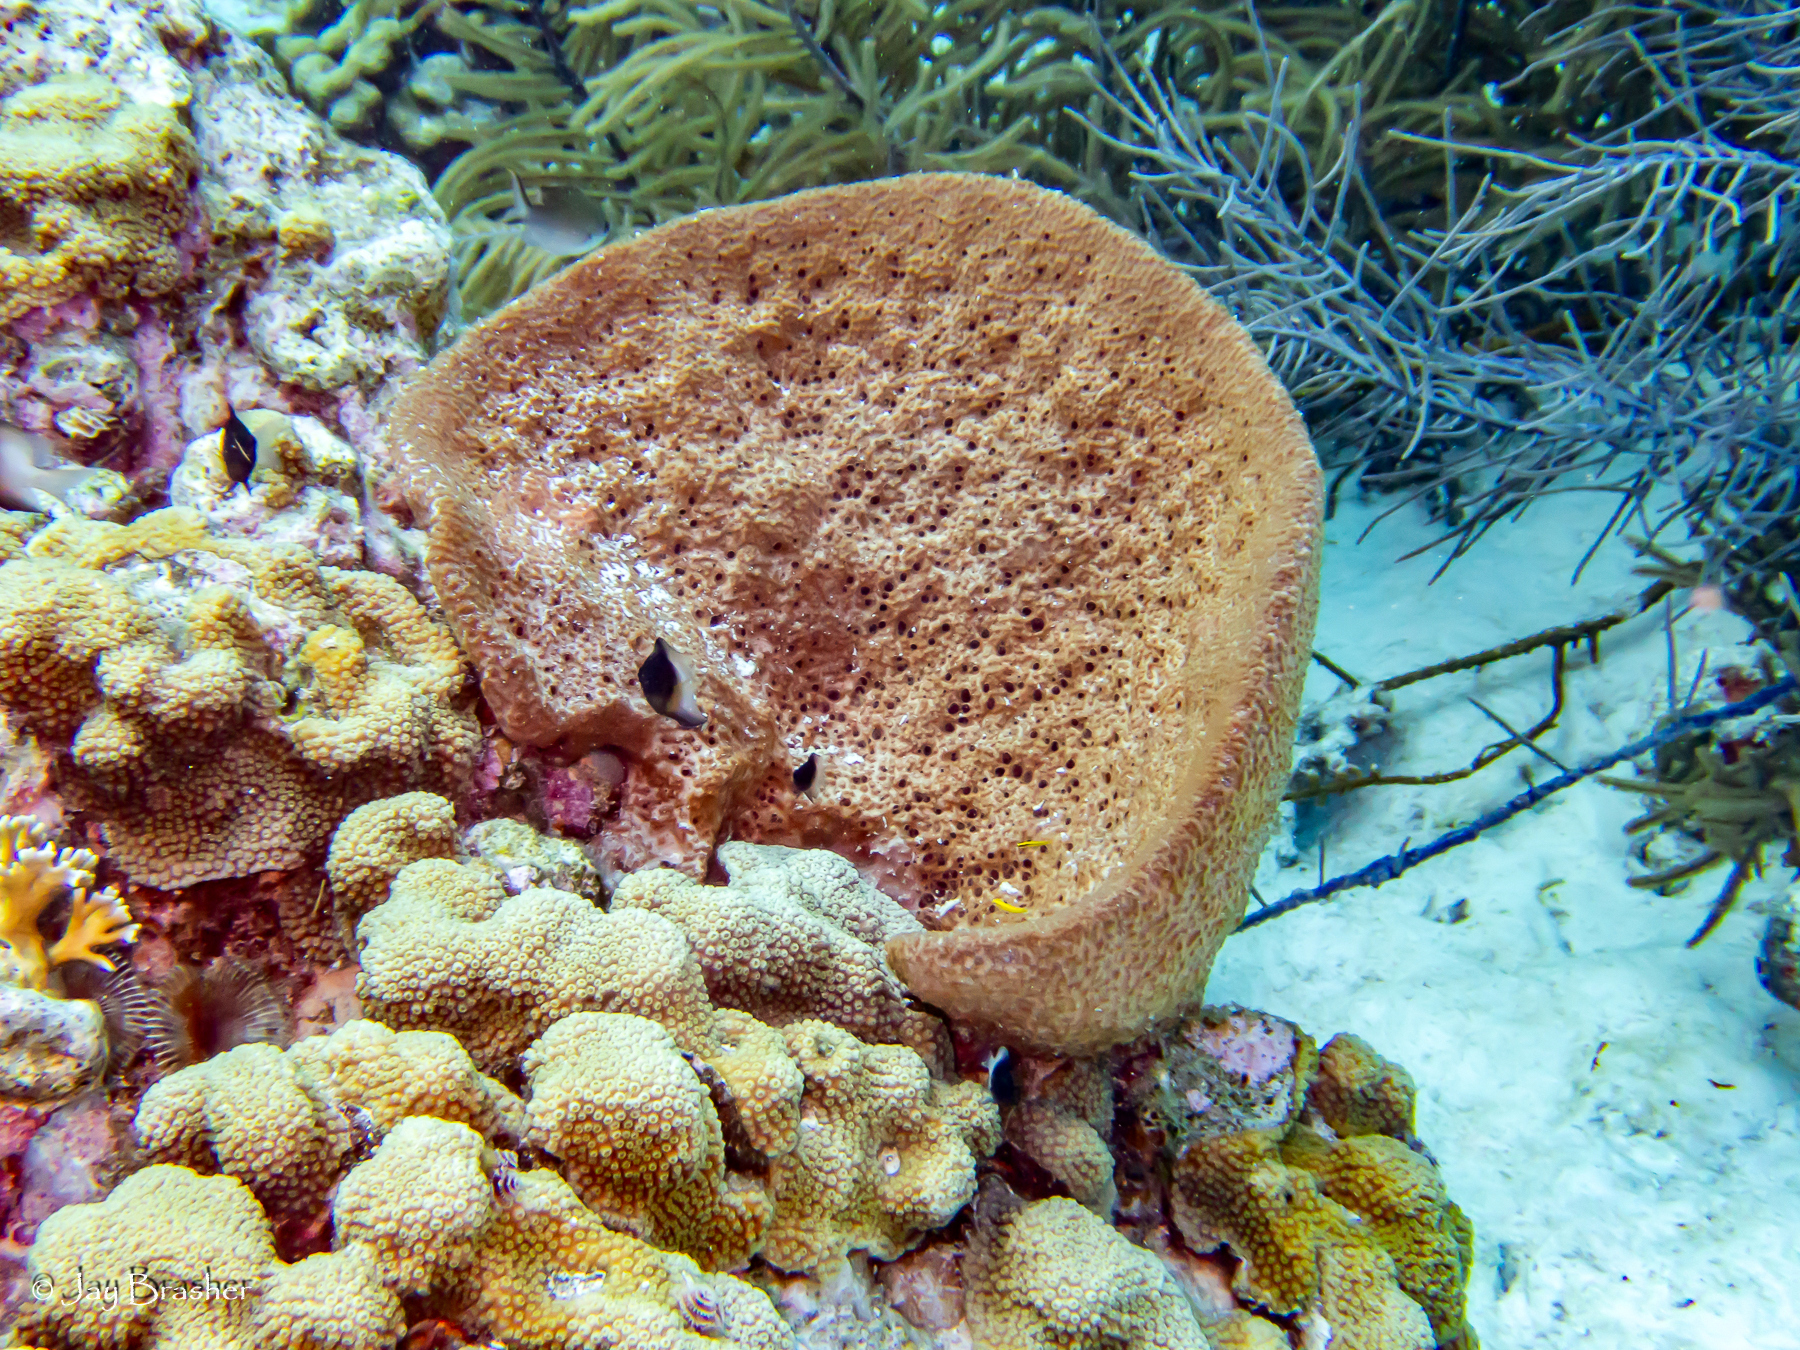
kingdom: Animalia
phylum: Porifera
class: Demospongiae
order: Dictyoceratida
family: Irciniidae
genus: Ircinia
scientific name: Ircinia campana
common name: Vase sponge
